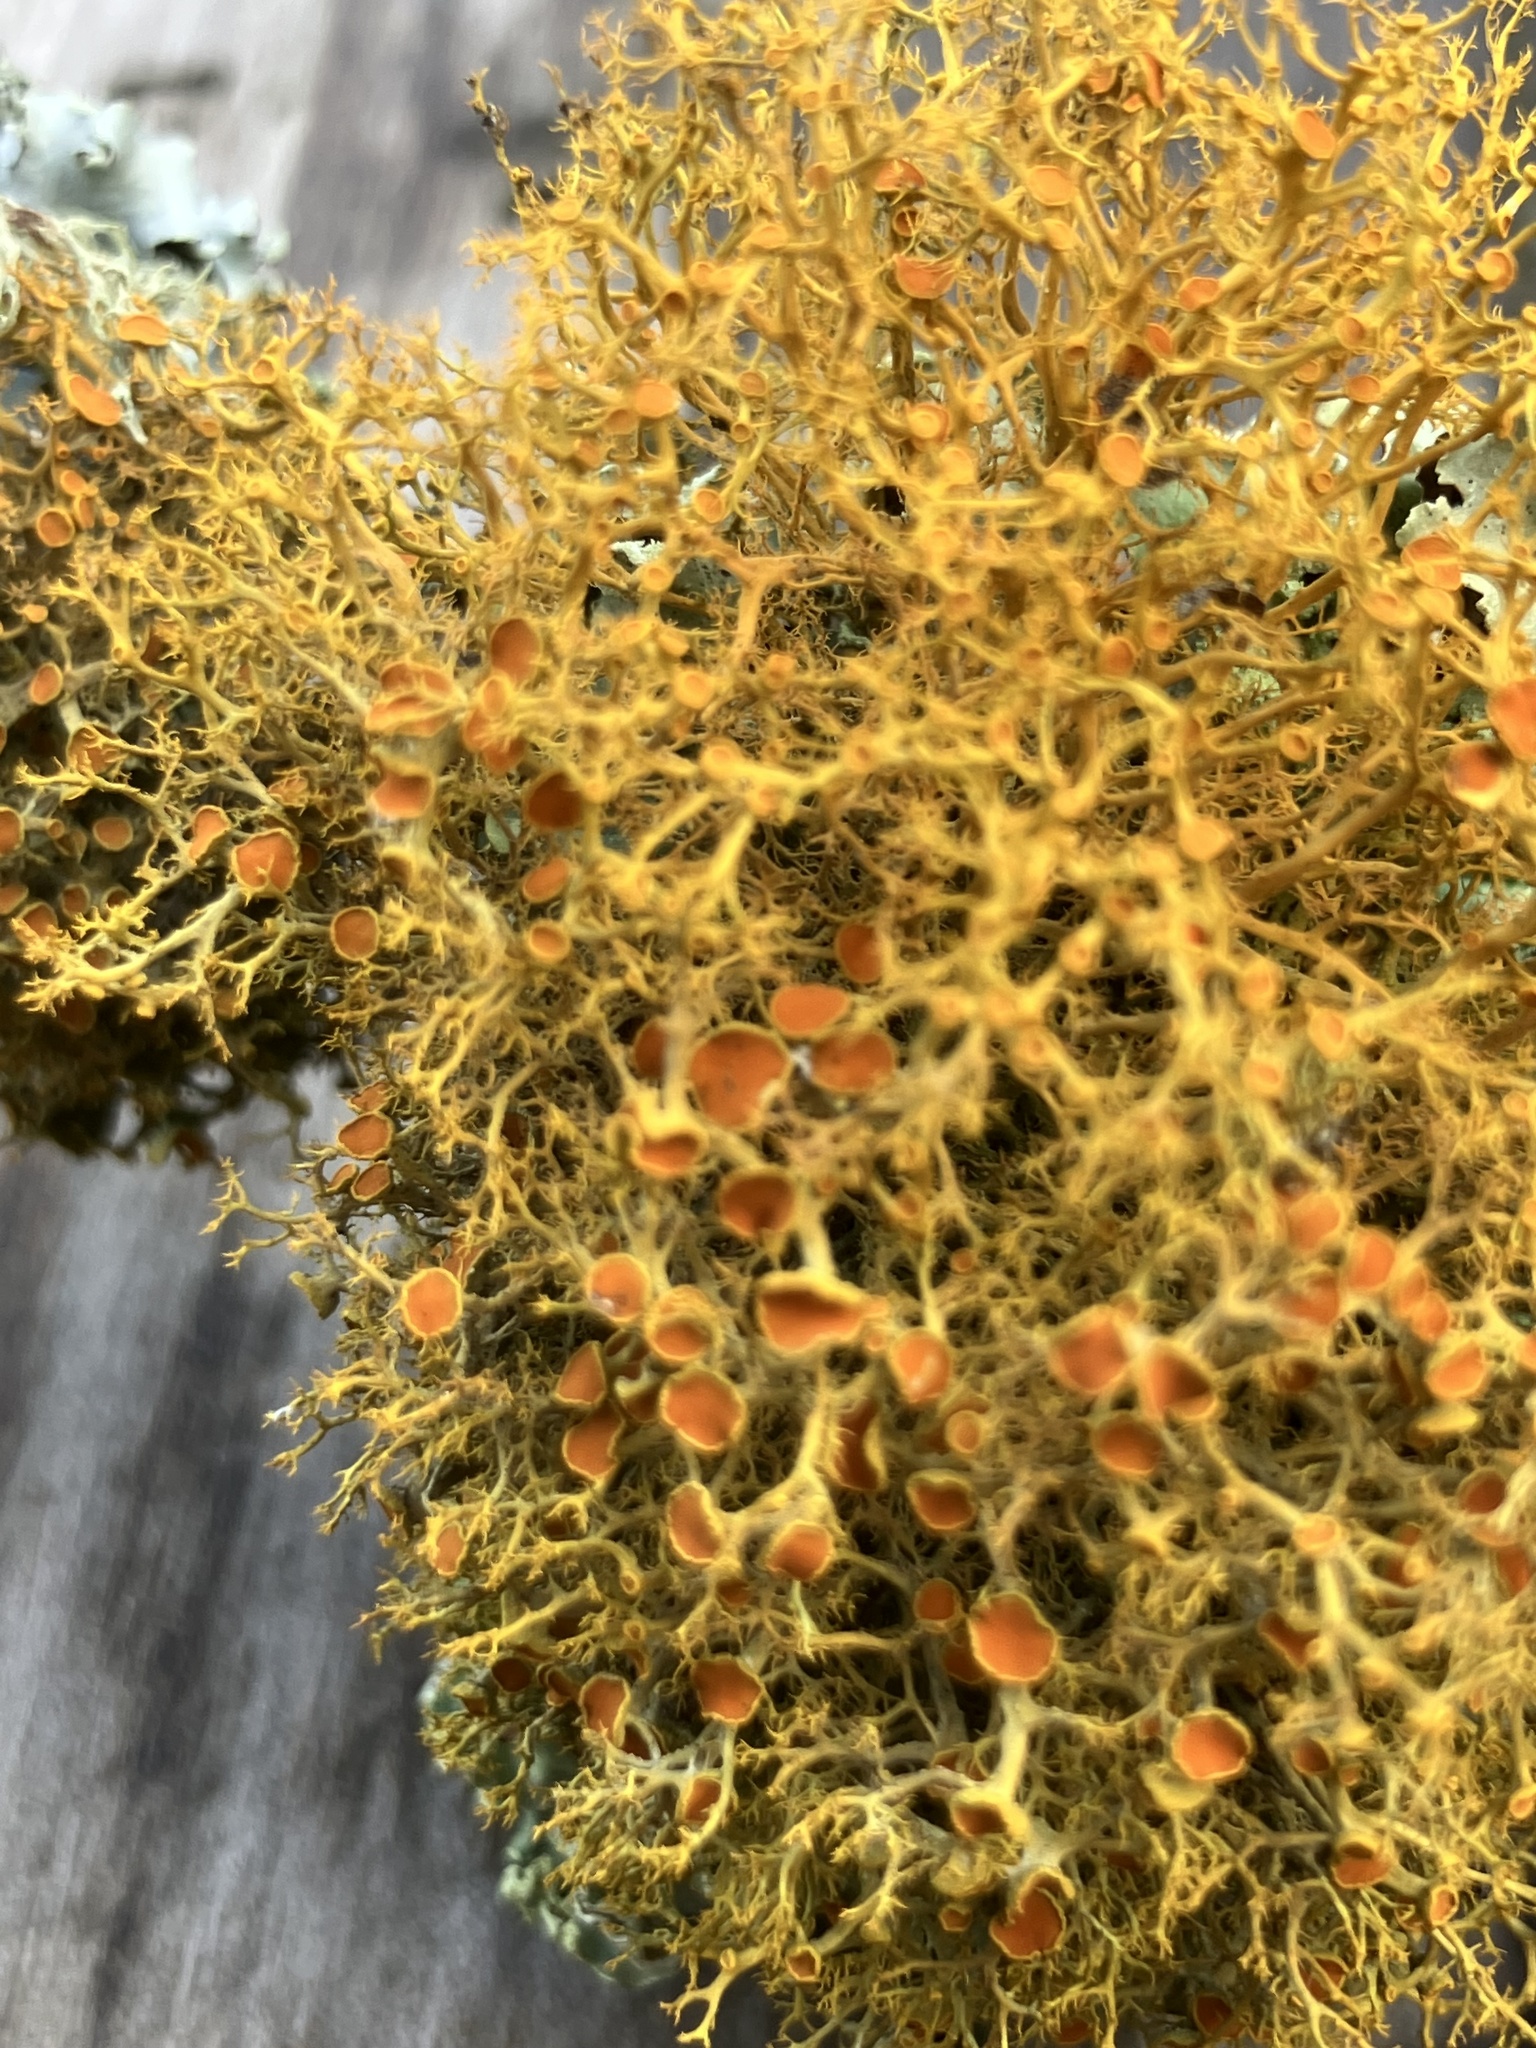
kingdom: Fungi
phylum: Ascomycota
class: Lecanoromycetes
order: Teloschistales
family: Teloschistaceae
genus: Teloschistes
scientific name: Teloschistes flavicans
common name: Golden hair-lichen
